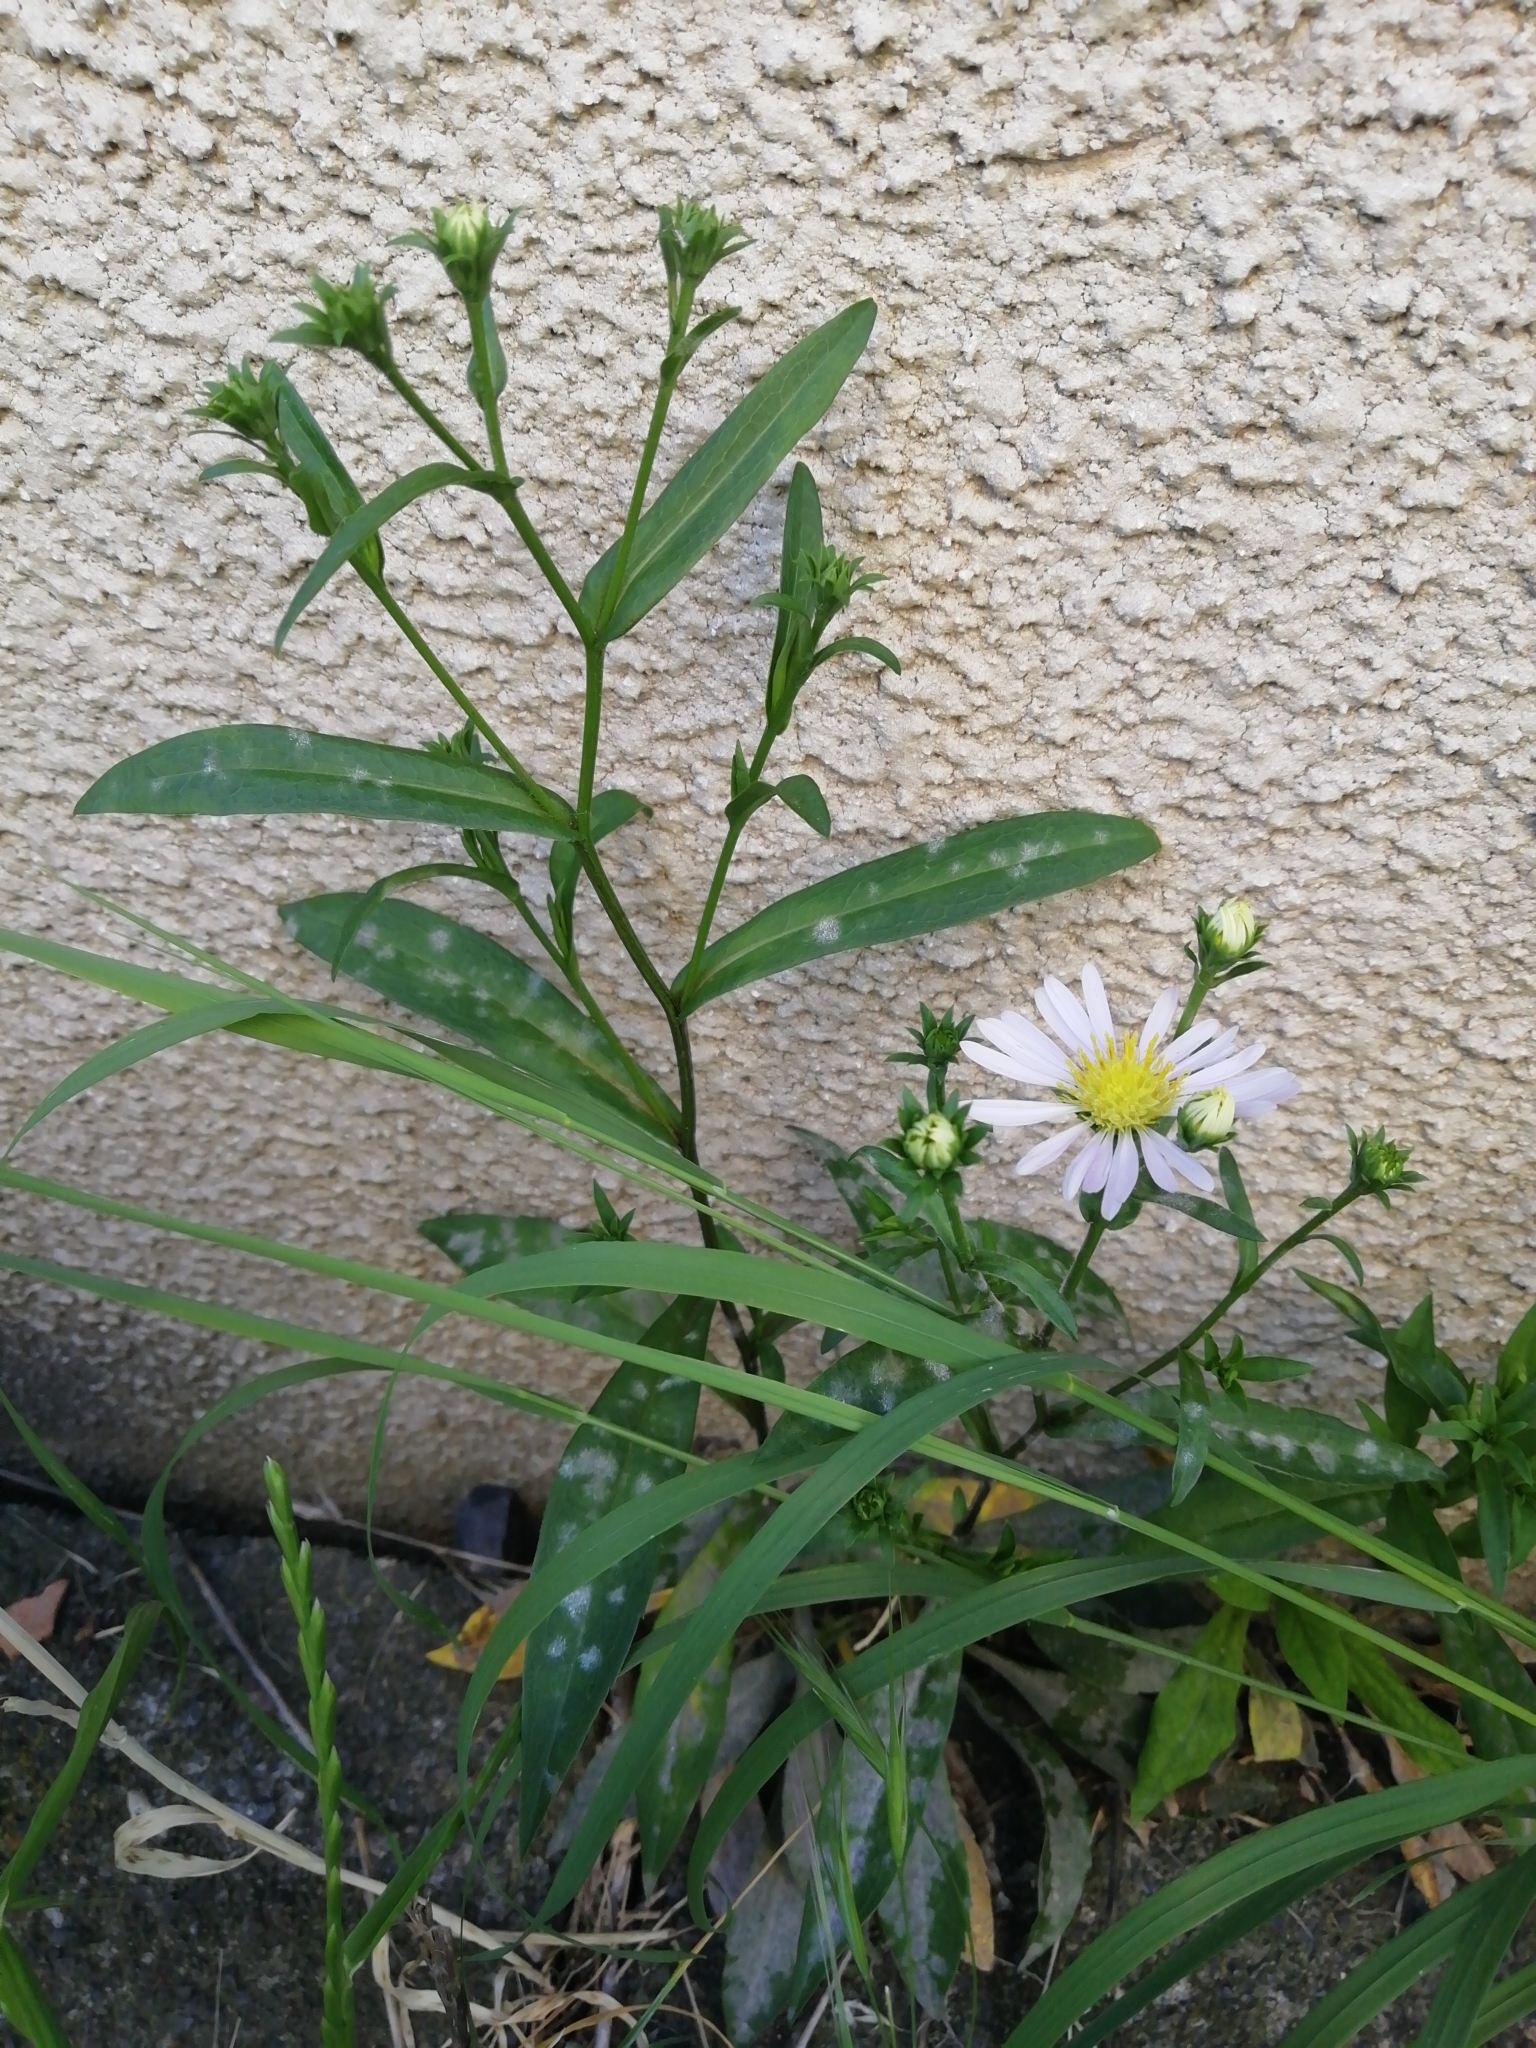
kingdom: Plantae
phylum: Tracheophyta
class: Magnoliopsida
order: Asterales
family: Asteraceae
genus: Erigeron
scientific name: Erigeron annuus
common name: Tall fleabane
